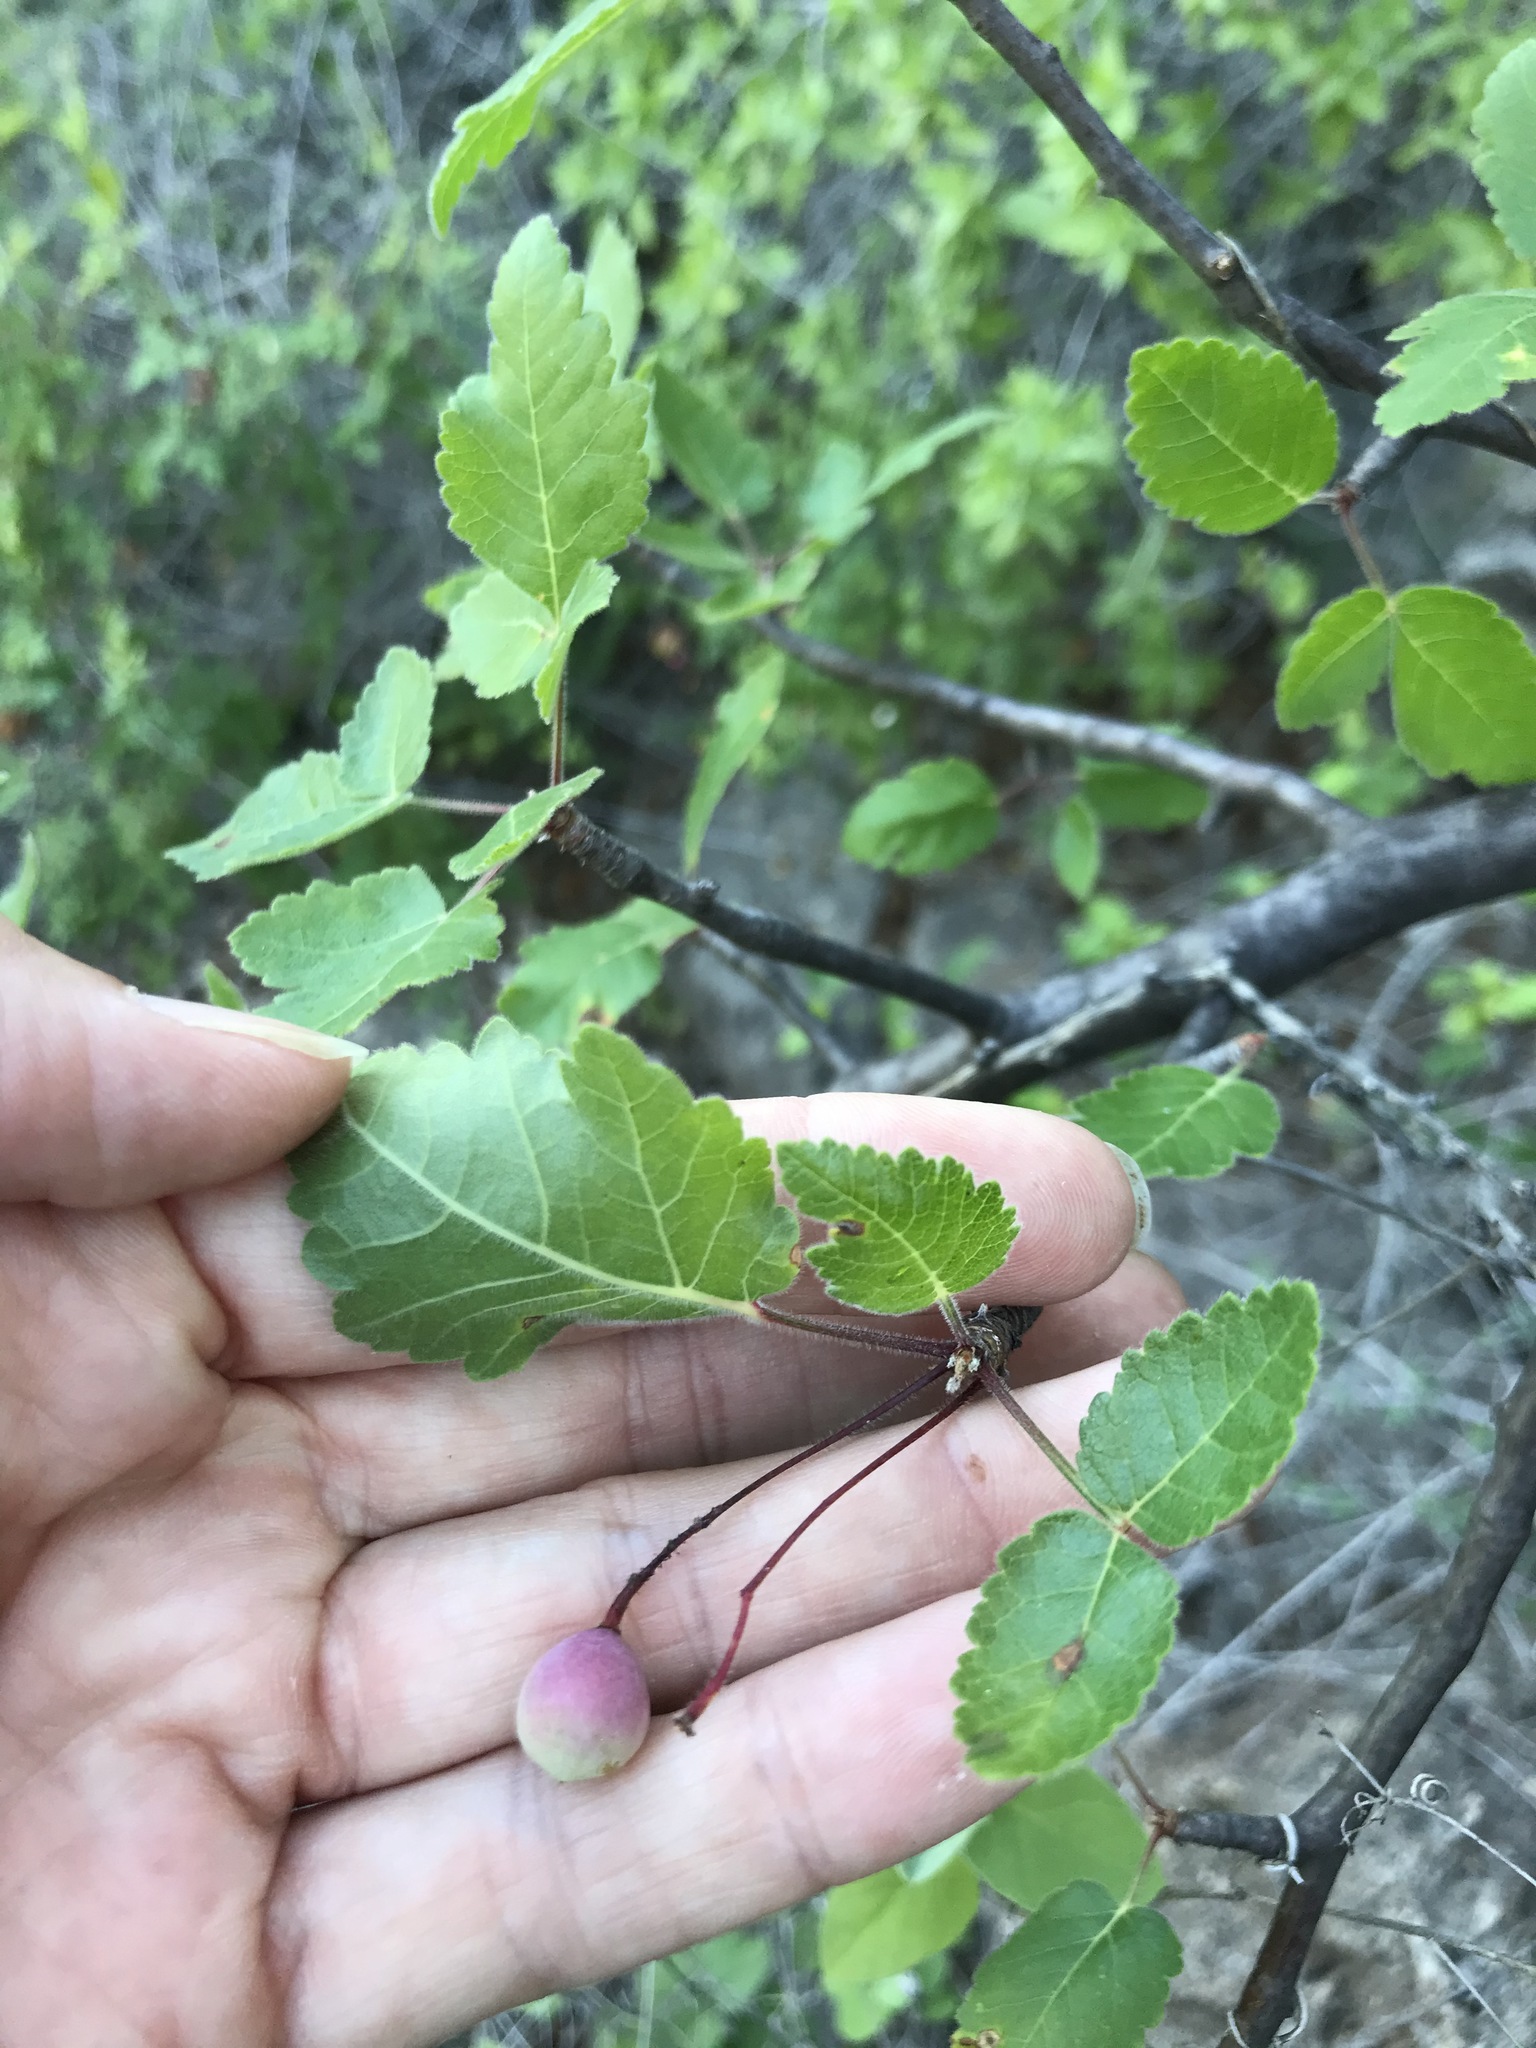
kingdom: Plantae
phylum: Tracheophyta
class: Magnoliopsida
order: Sapindales
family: Burseraceae
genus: Bursera
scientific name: Bursera epinnata
